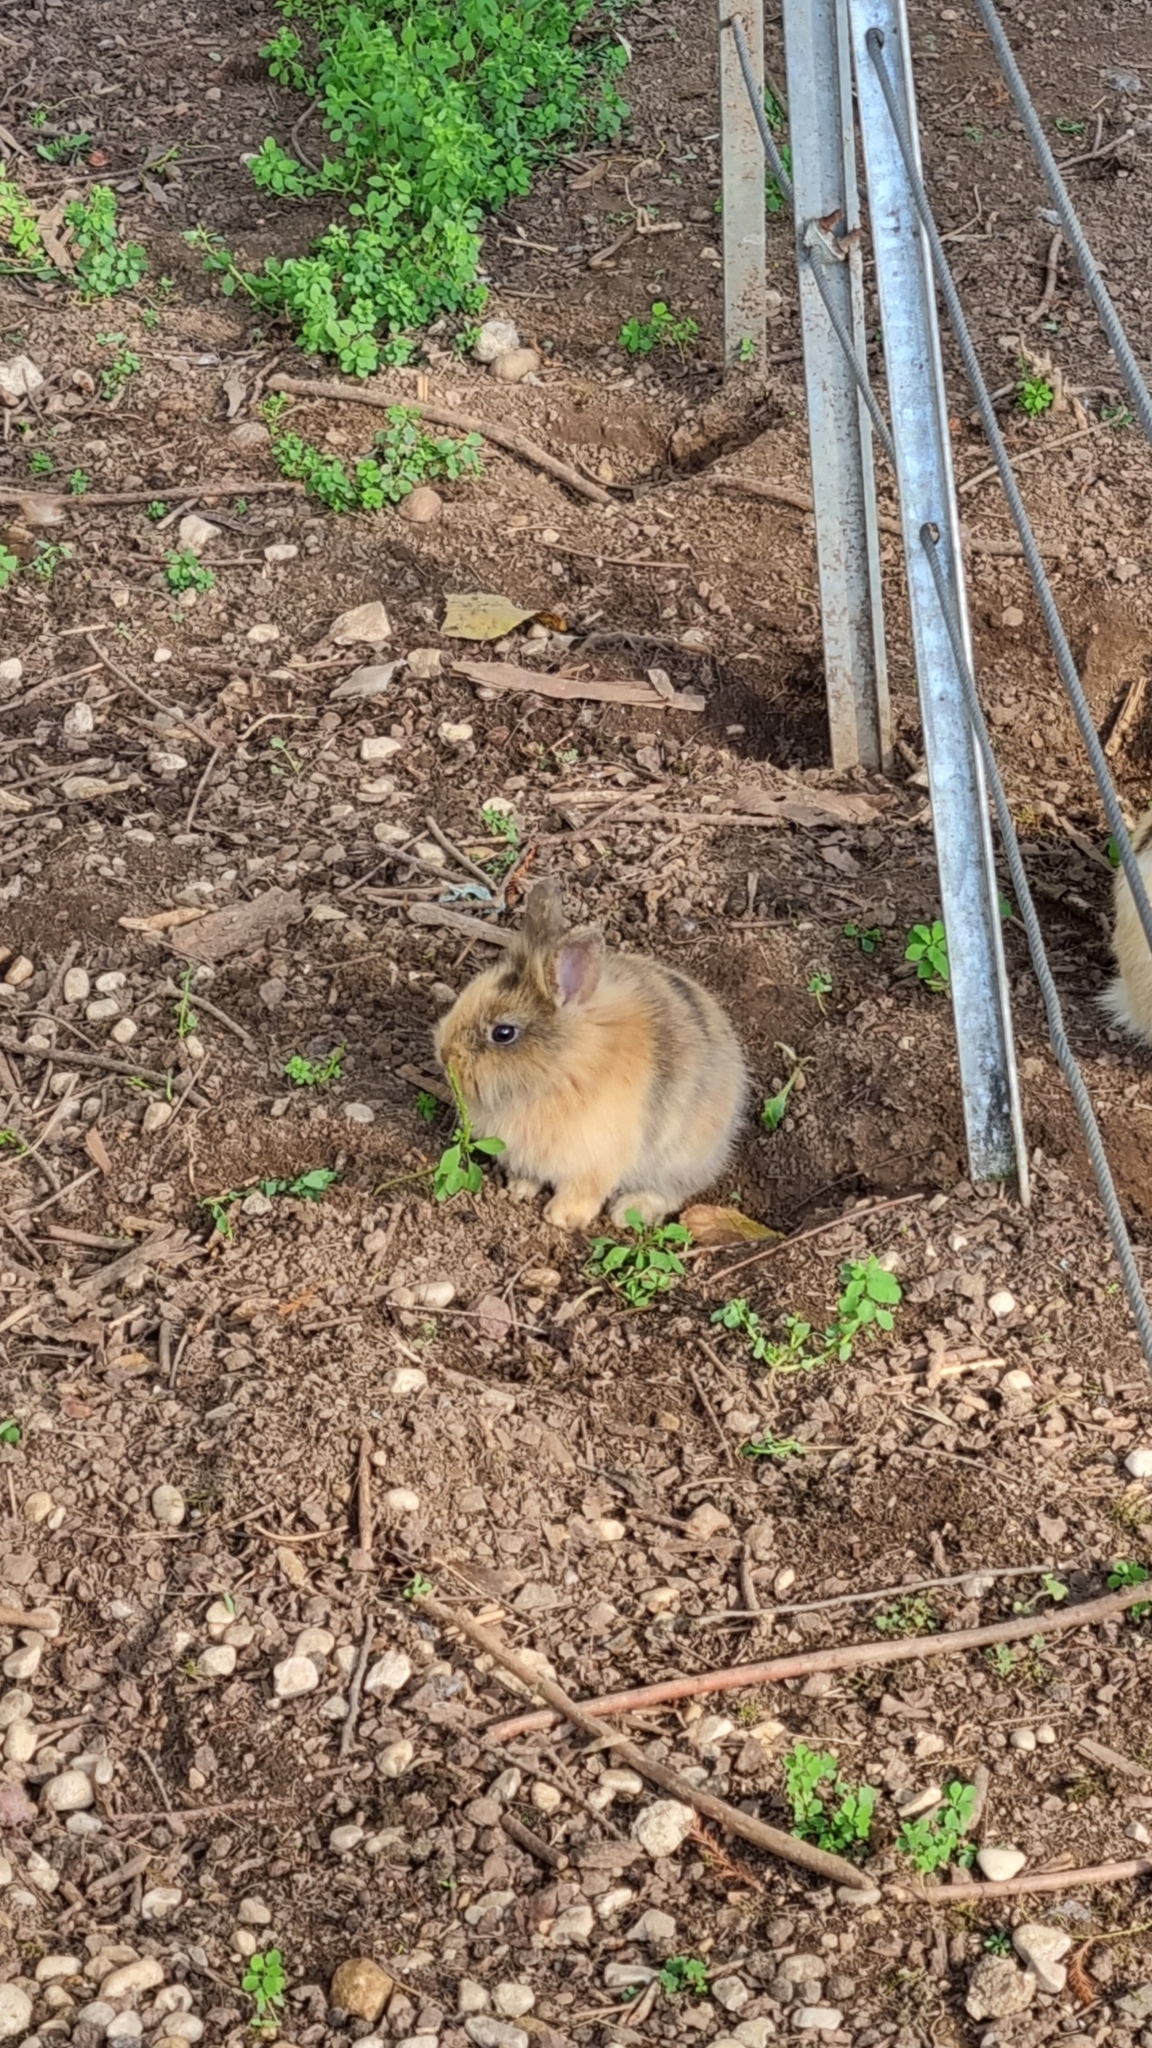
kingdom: Animalia
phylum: Chordata
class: Mammalia
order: Lagomorpha
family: Leporidae
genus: Oryctolagus
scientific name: Oryctolagus cuniculus
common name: European rabbit
